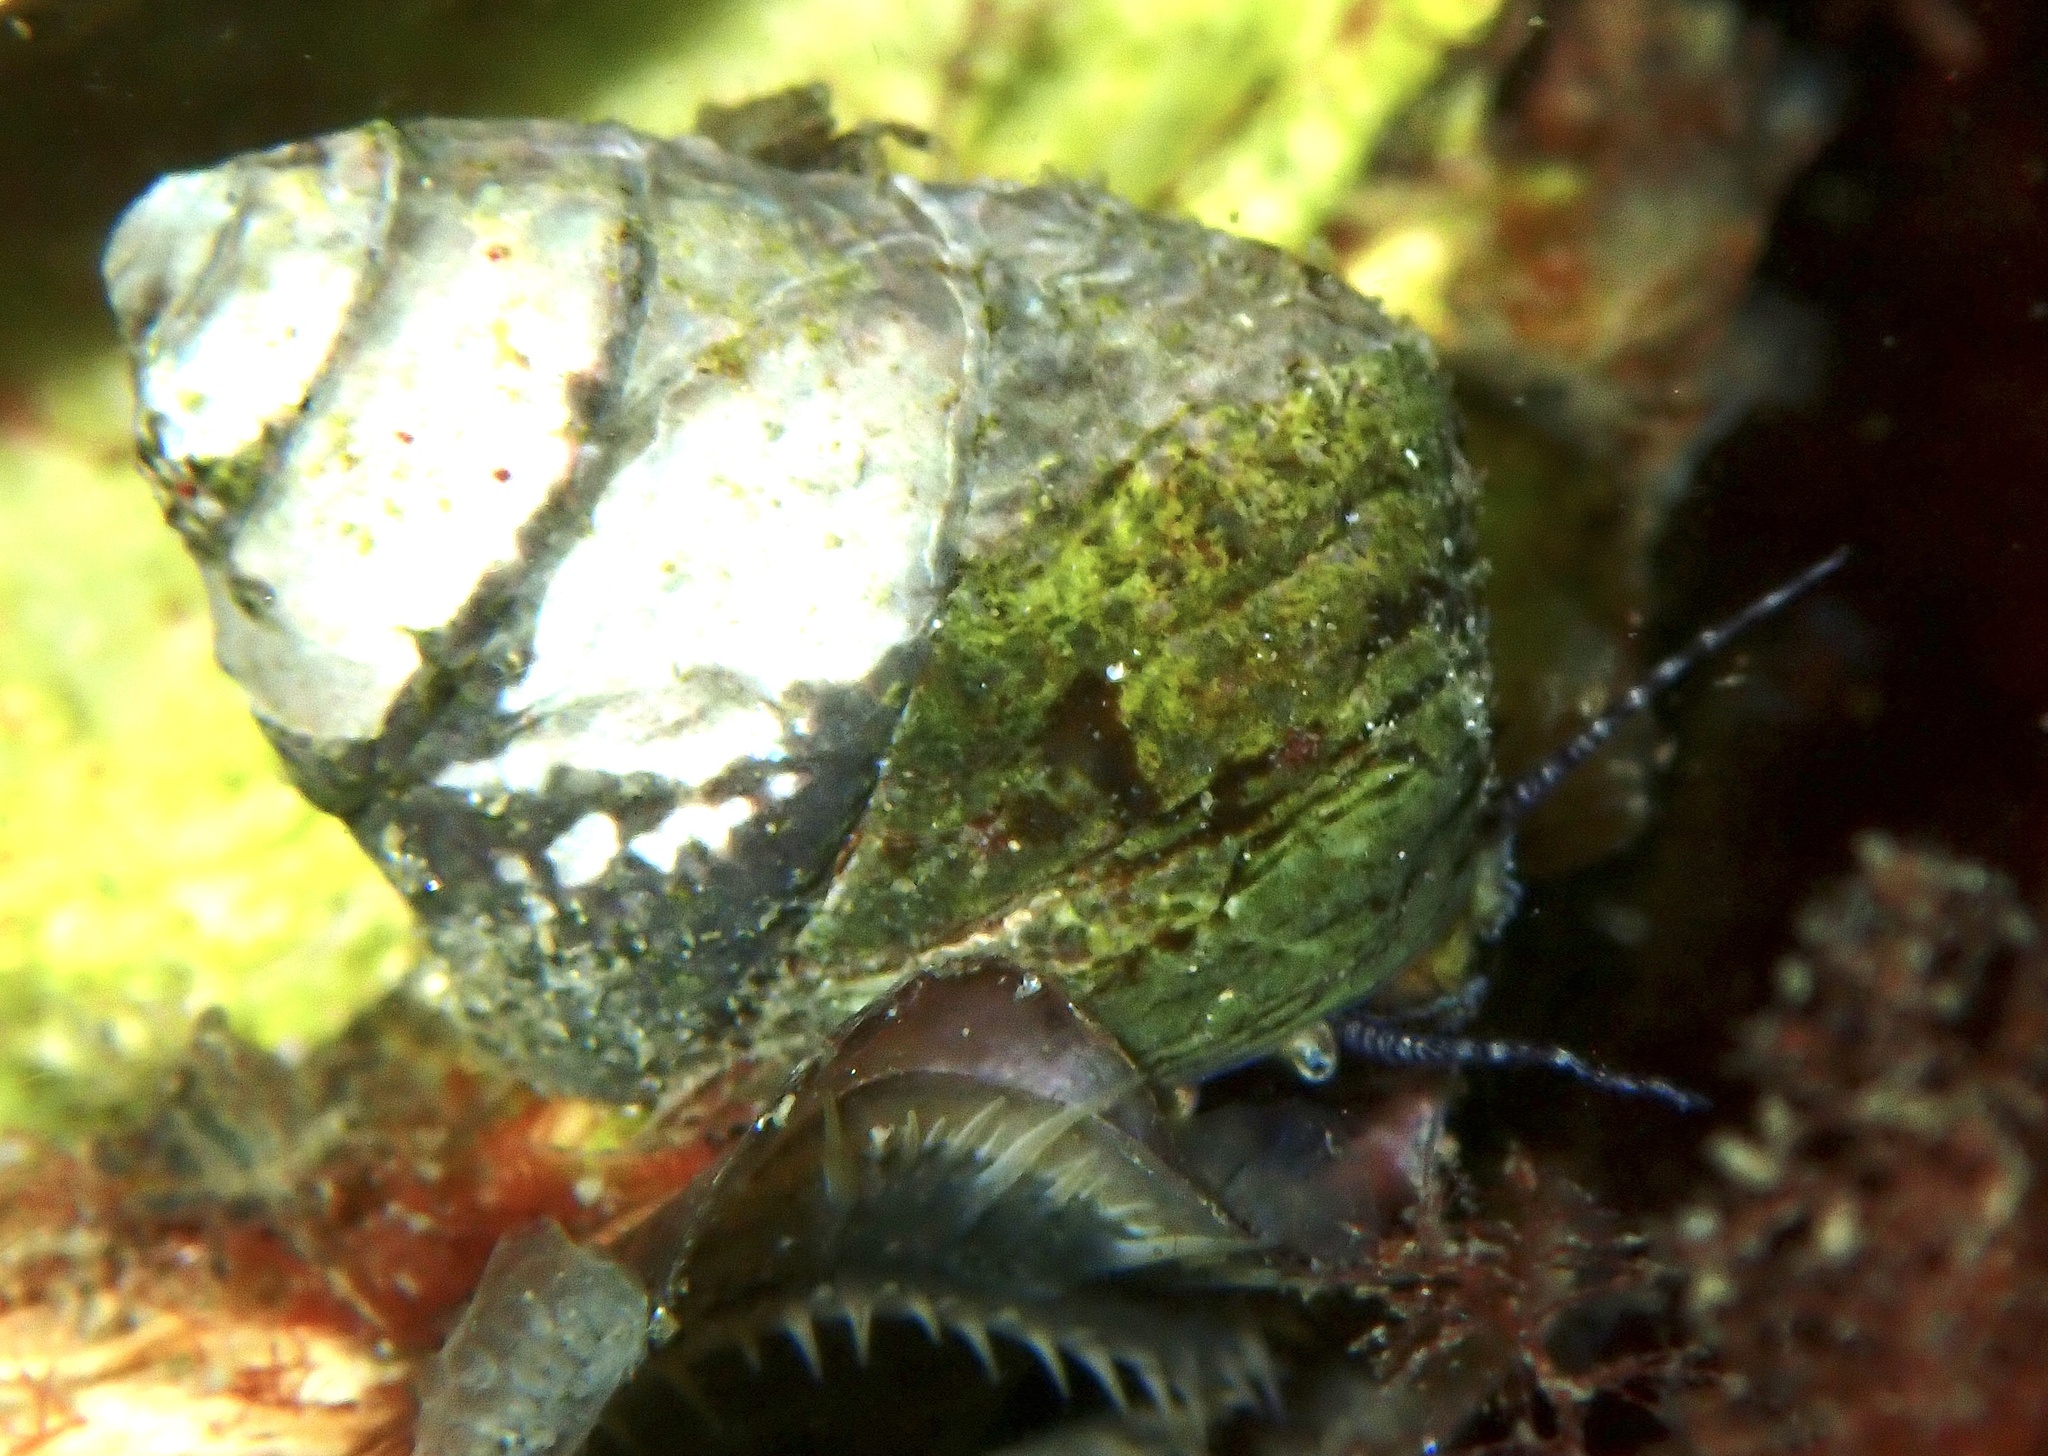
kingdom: Animalia
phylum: Mollusca
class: Gastropoda
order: Trochida
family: Trochidae
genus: Steromphala
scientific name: Steromphala cineraria
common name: Grey top shell
